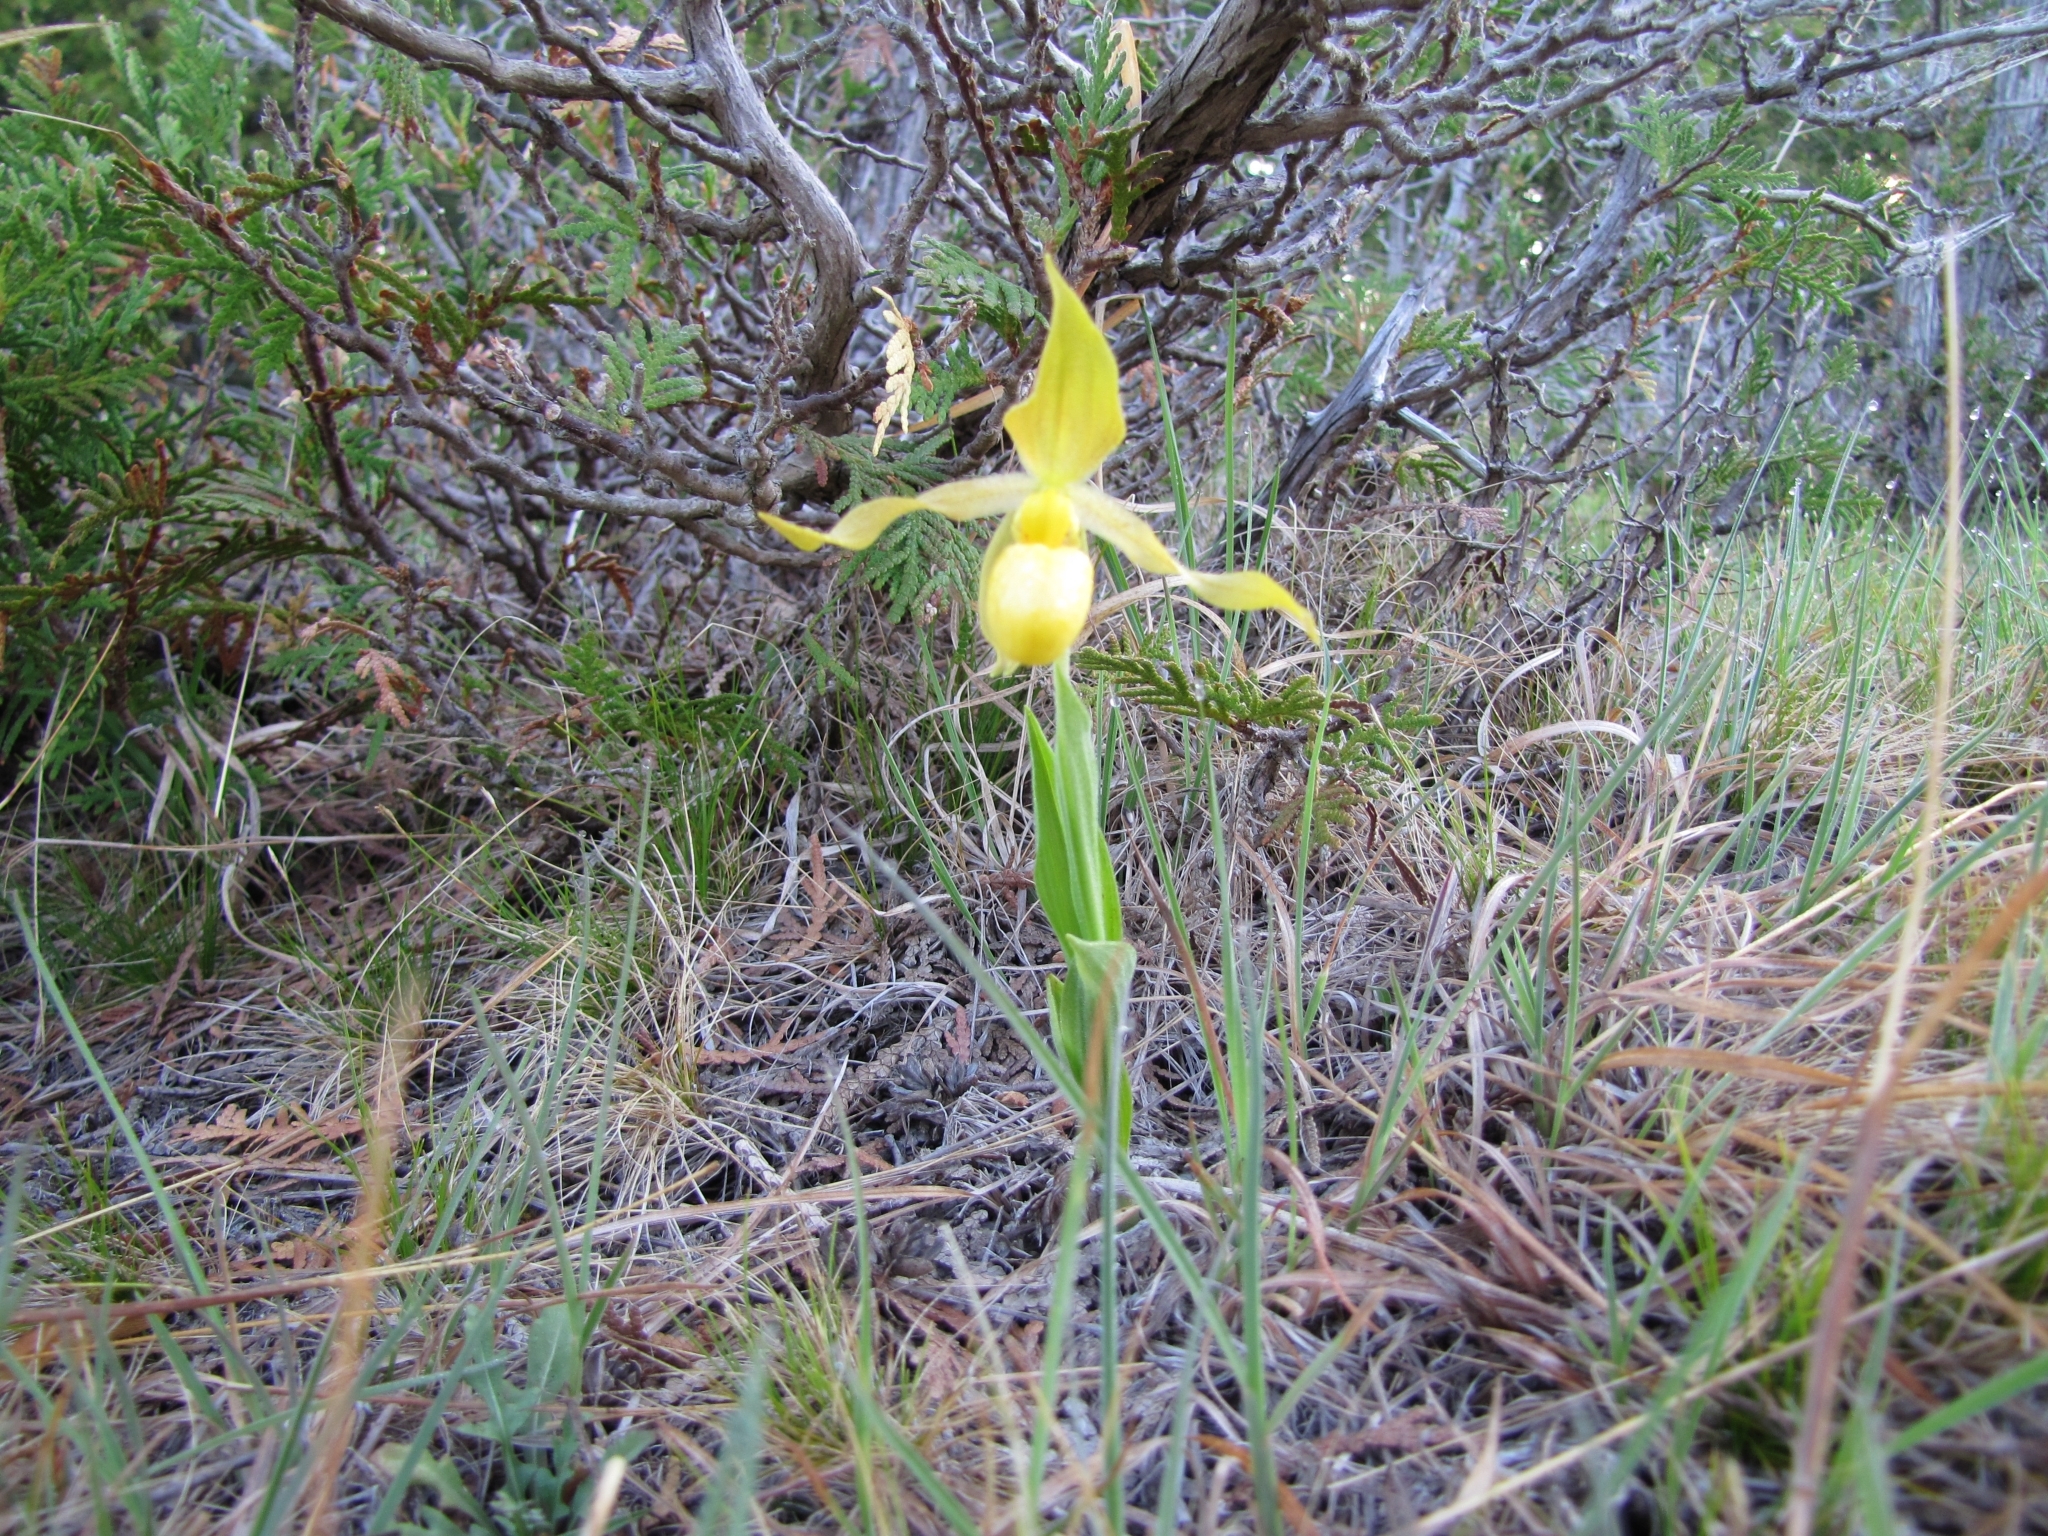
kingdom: Plantae
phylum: Tracheophyta
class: Liliopsida
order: Asparagales
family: Orchidaceae
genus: Cypripedium
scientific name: Cypripedium parviflorum
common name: American yellow lady's-slipper
